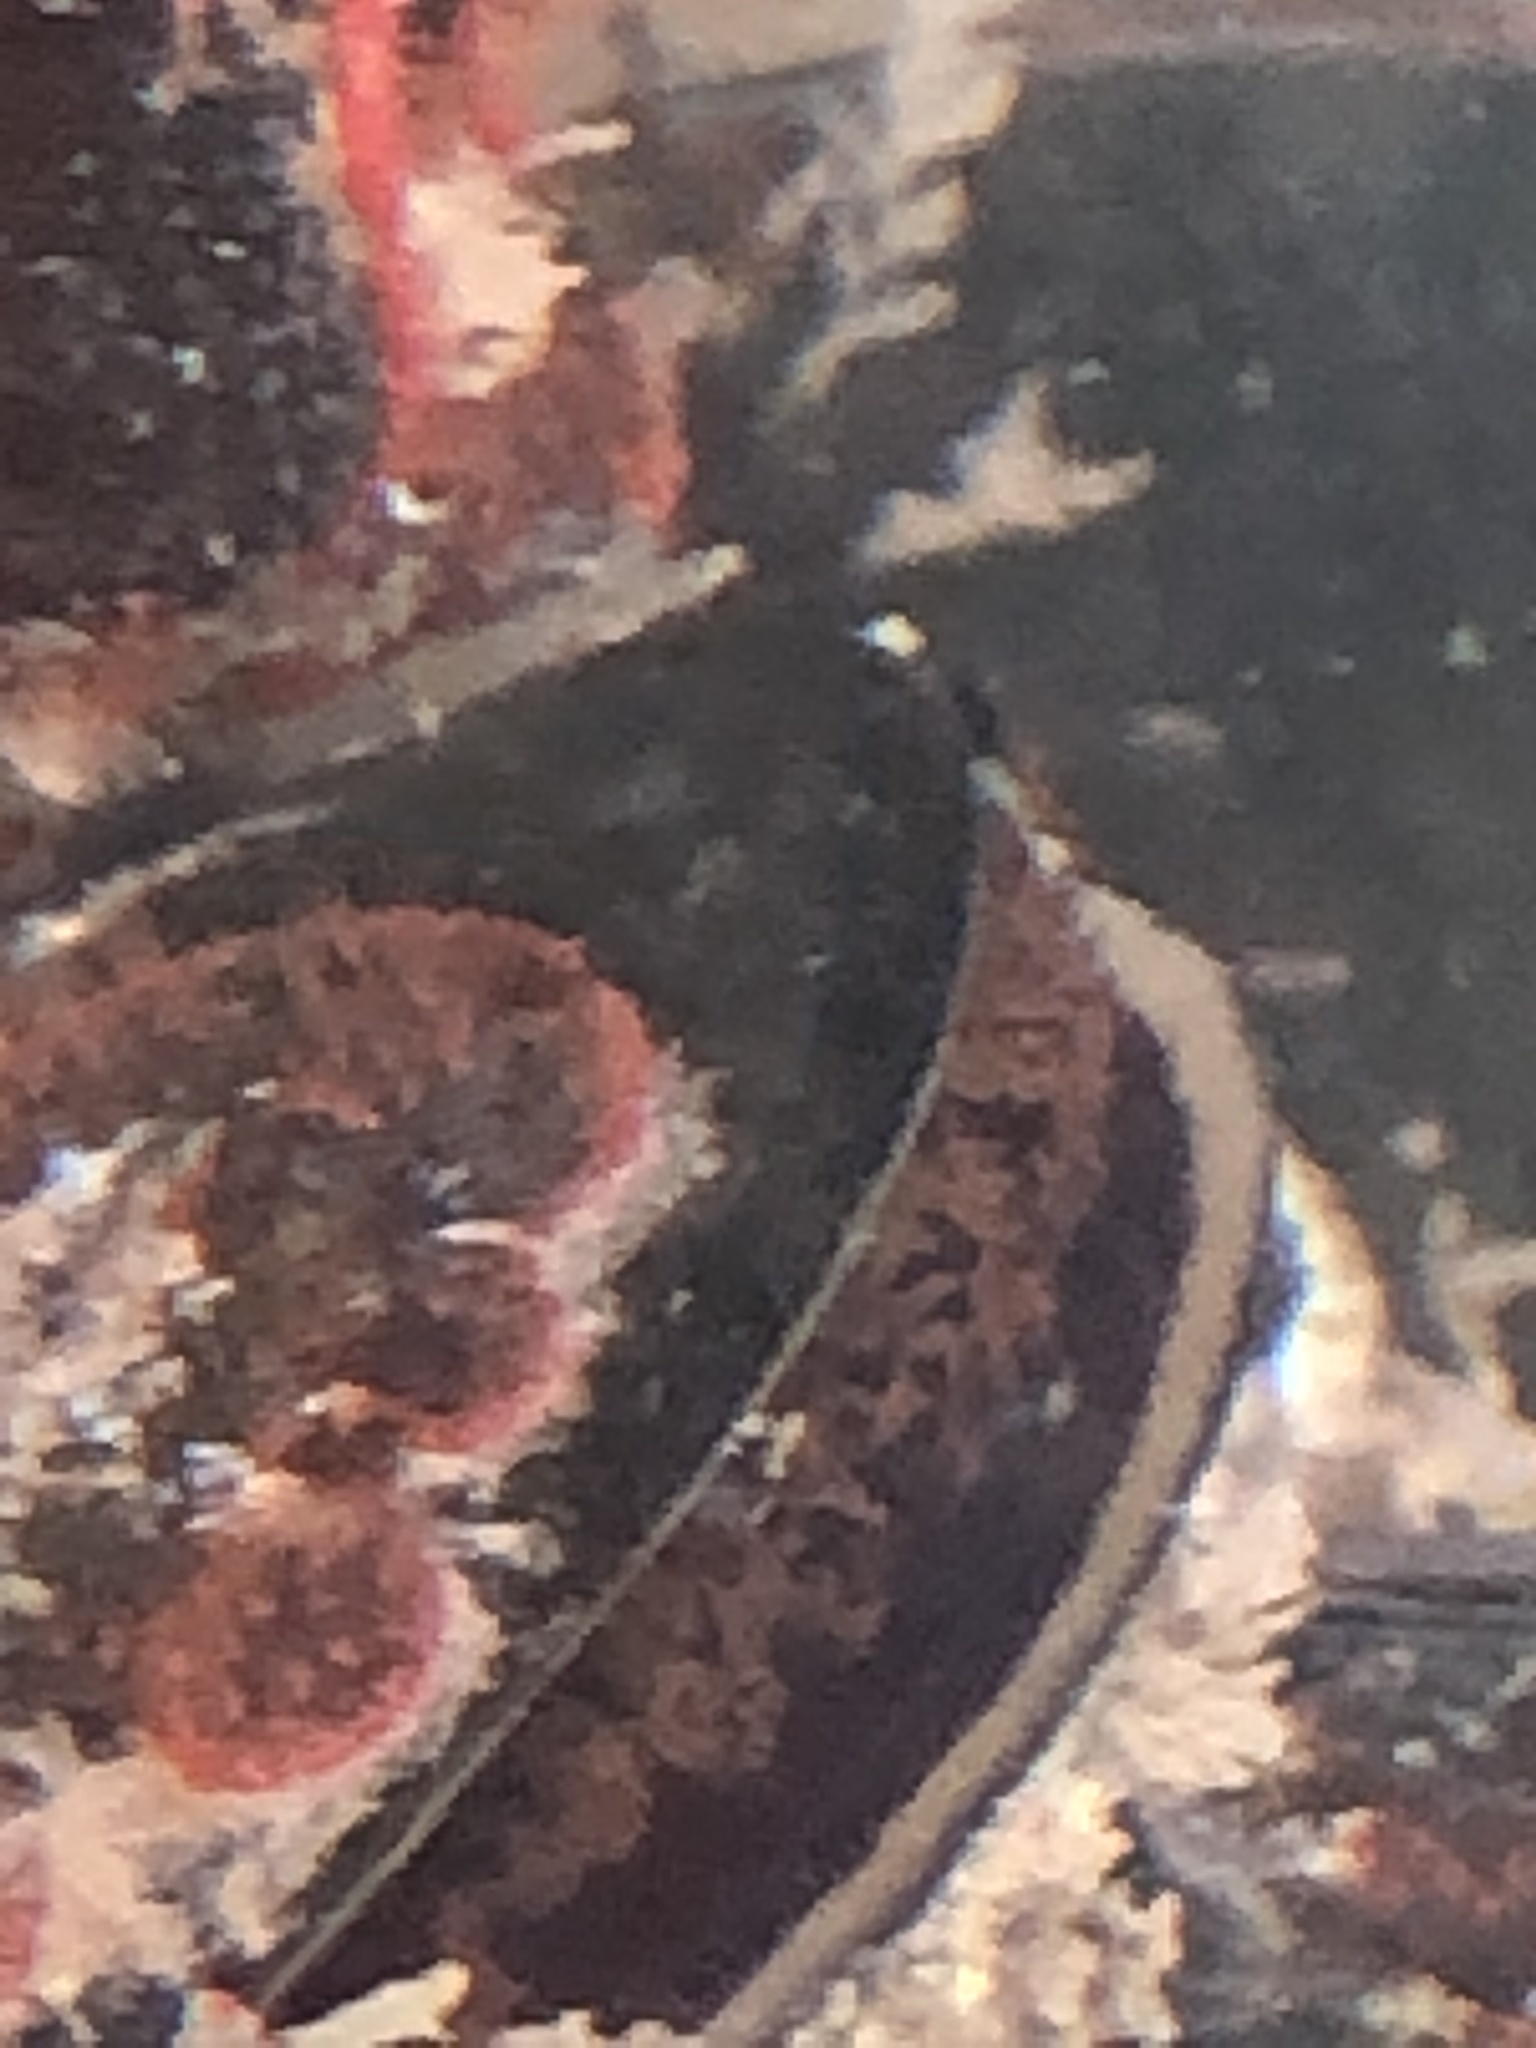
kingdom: Animalia
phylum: Mollusca
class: Bivalvia
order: Mytilida
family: Mytilidae
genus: Mytilus
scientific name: Mytilus
